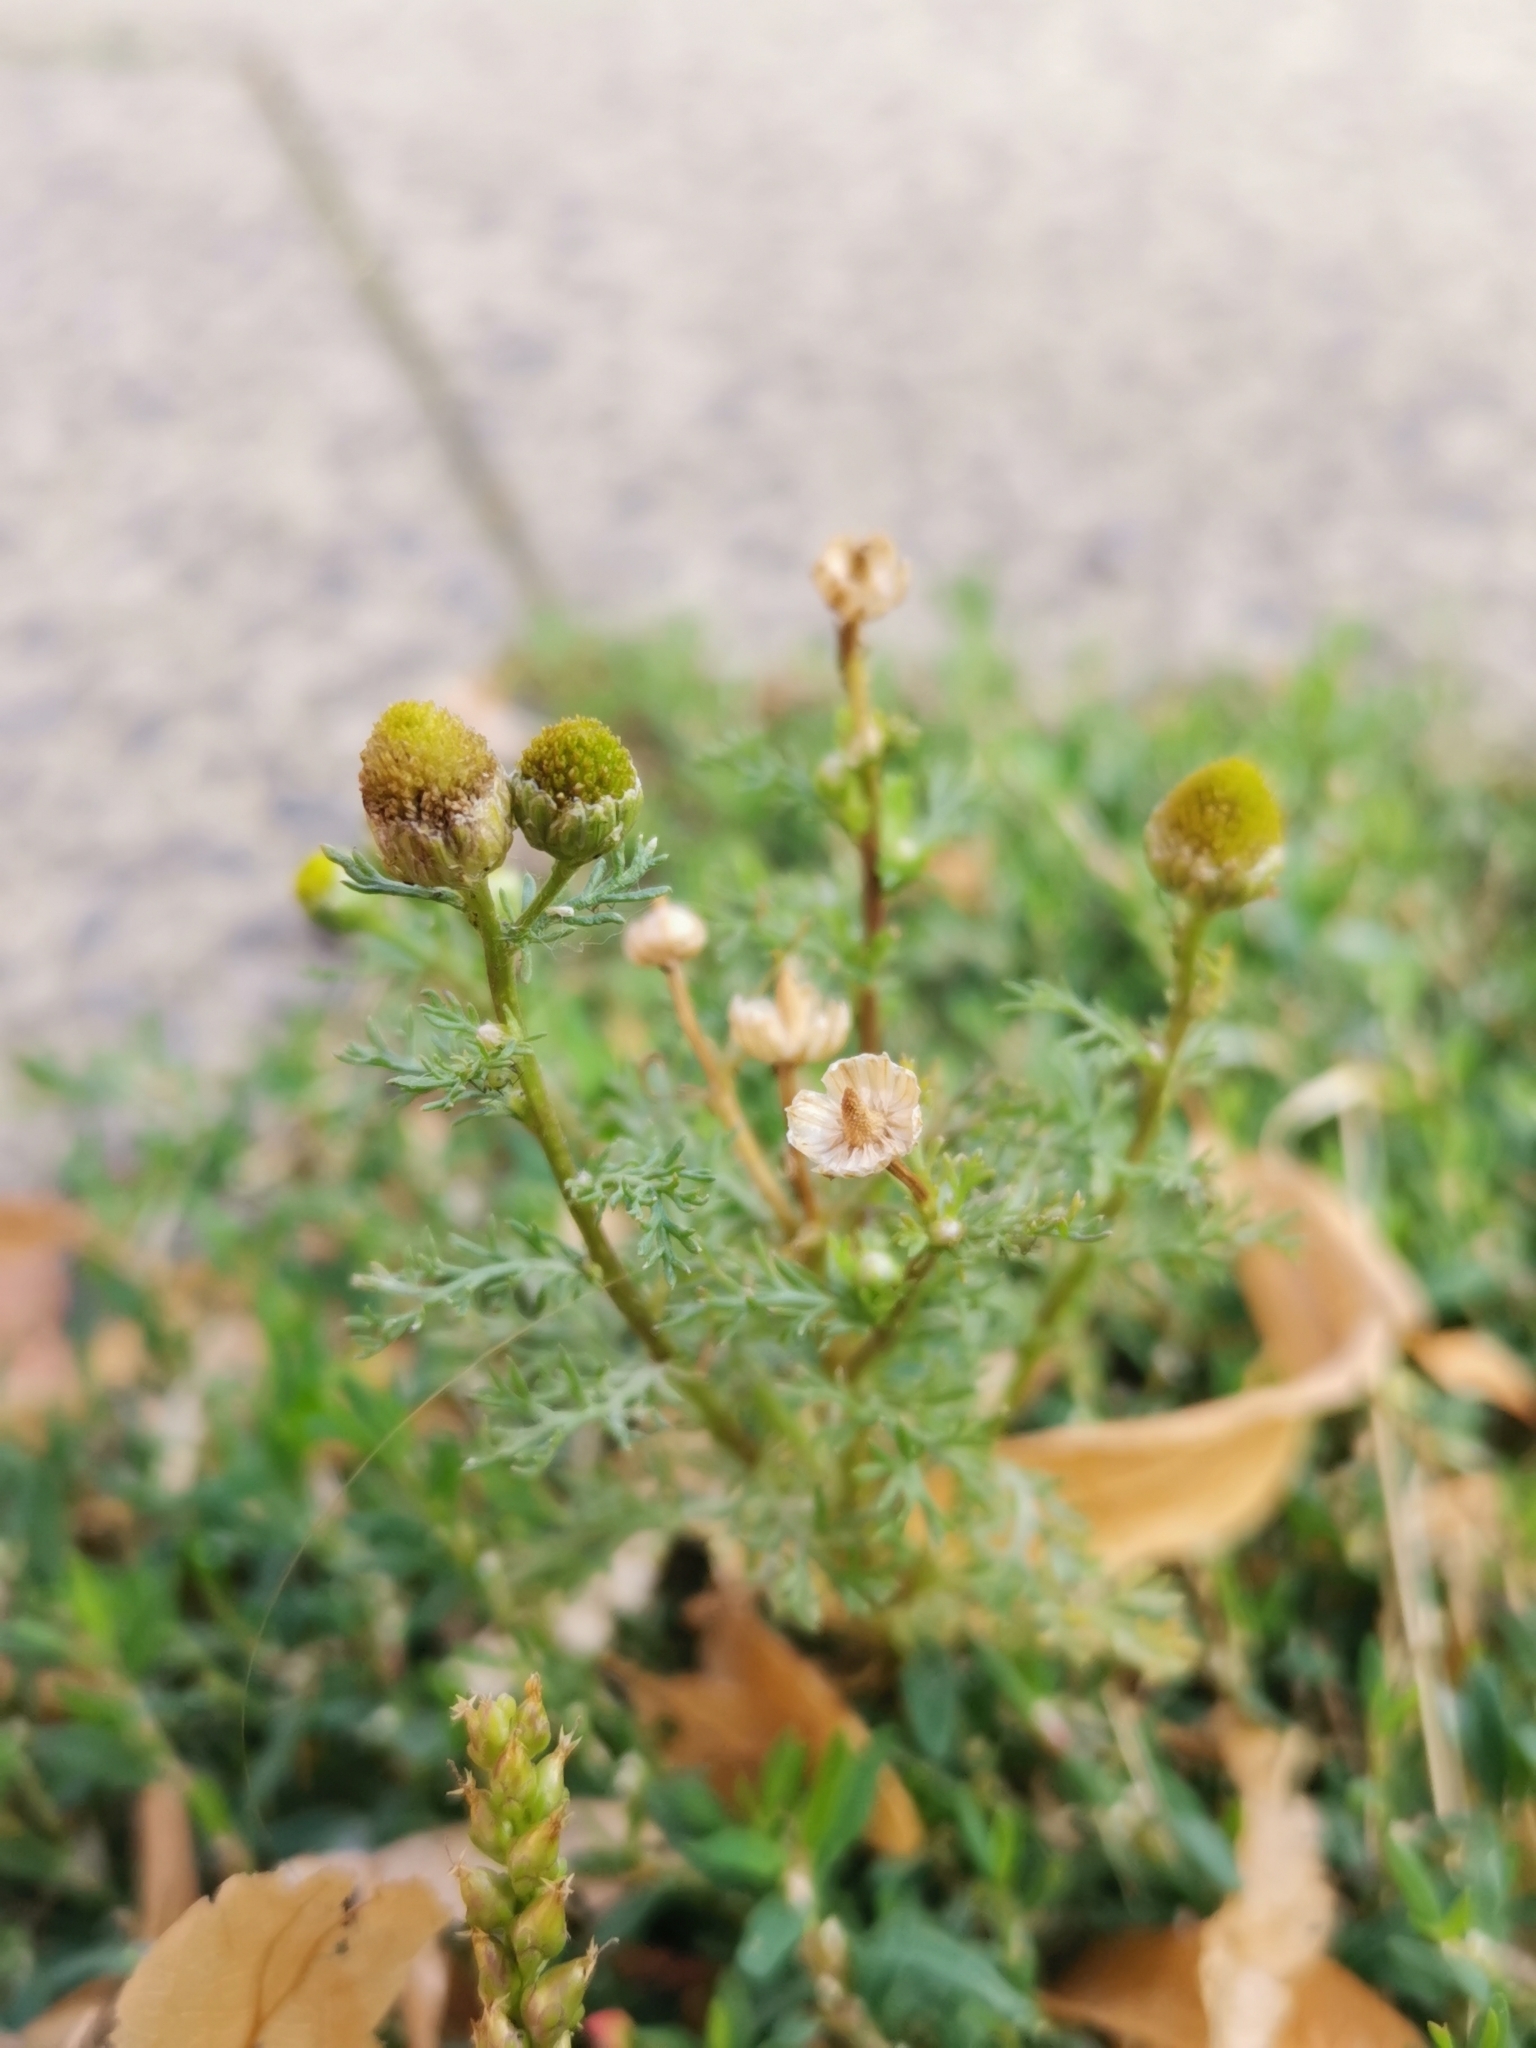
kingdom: Plantae
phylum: Tracheophyta
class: Magnoliopsida
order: Asterales
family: Asteraceae
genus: Matricaria
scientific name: Matricaria discoidea
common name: Disc mayweed
